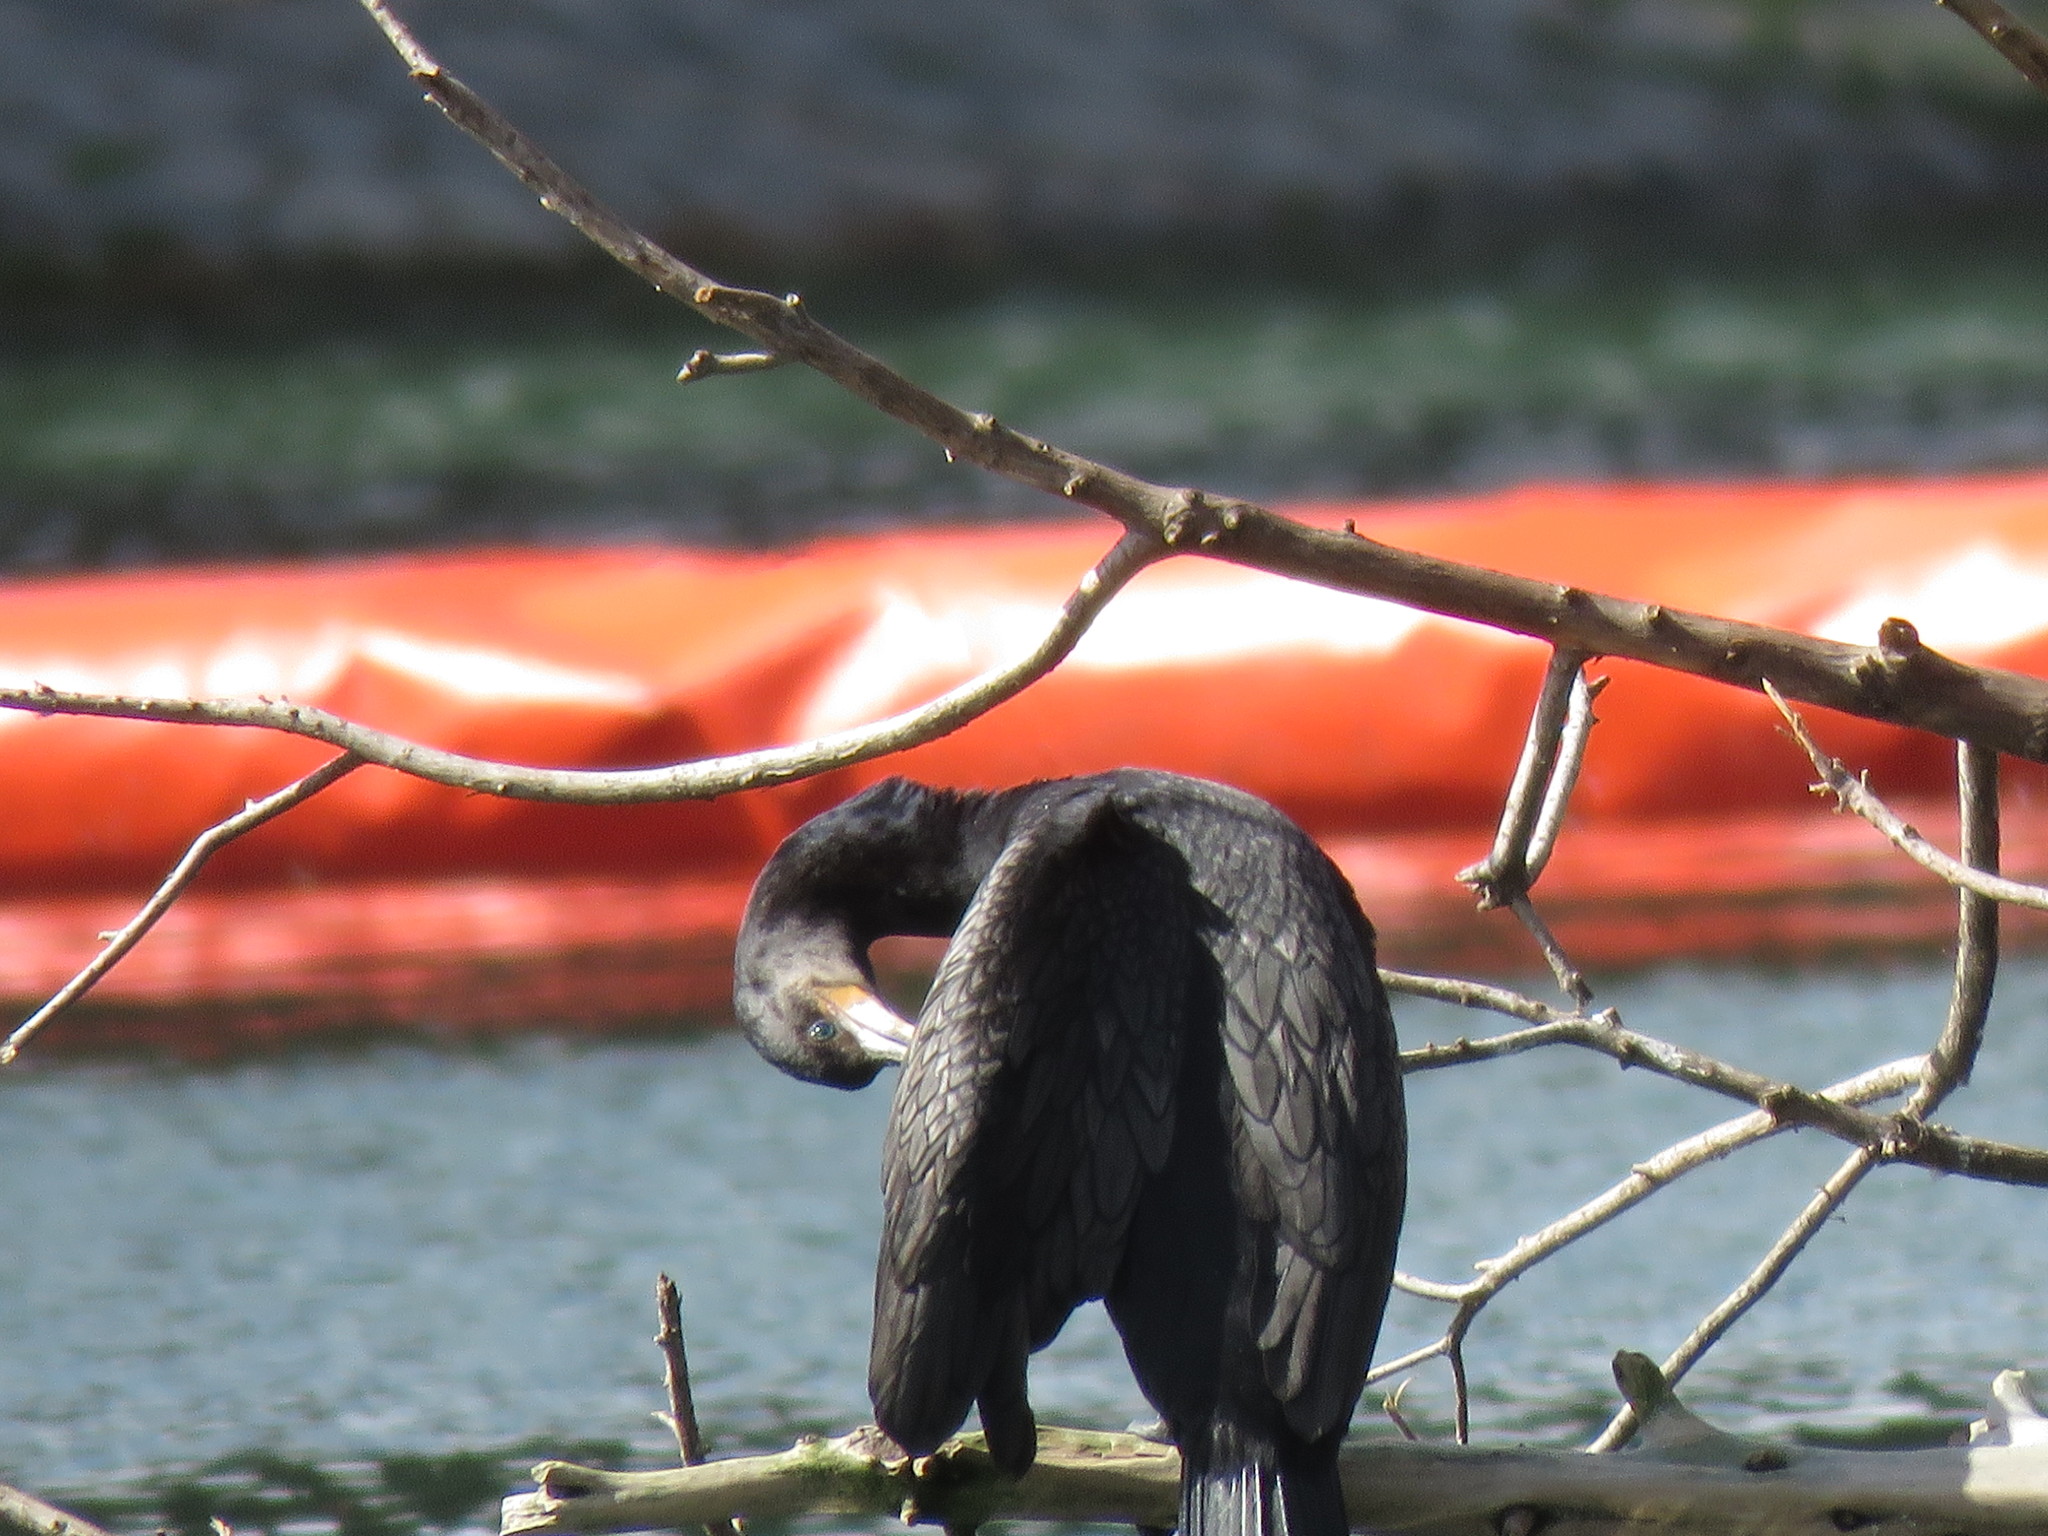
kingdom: Animalia
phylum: Chordata
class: Aves
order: Suliformes
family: Phalacrocoracidae
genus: Phalacrocorax
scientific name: Phalacrocorax brasilianus
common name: Neotropic cormorant
